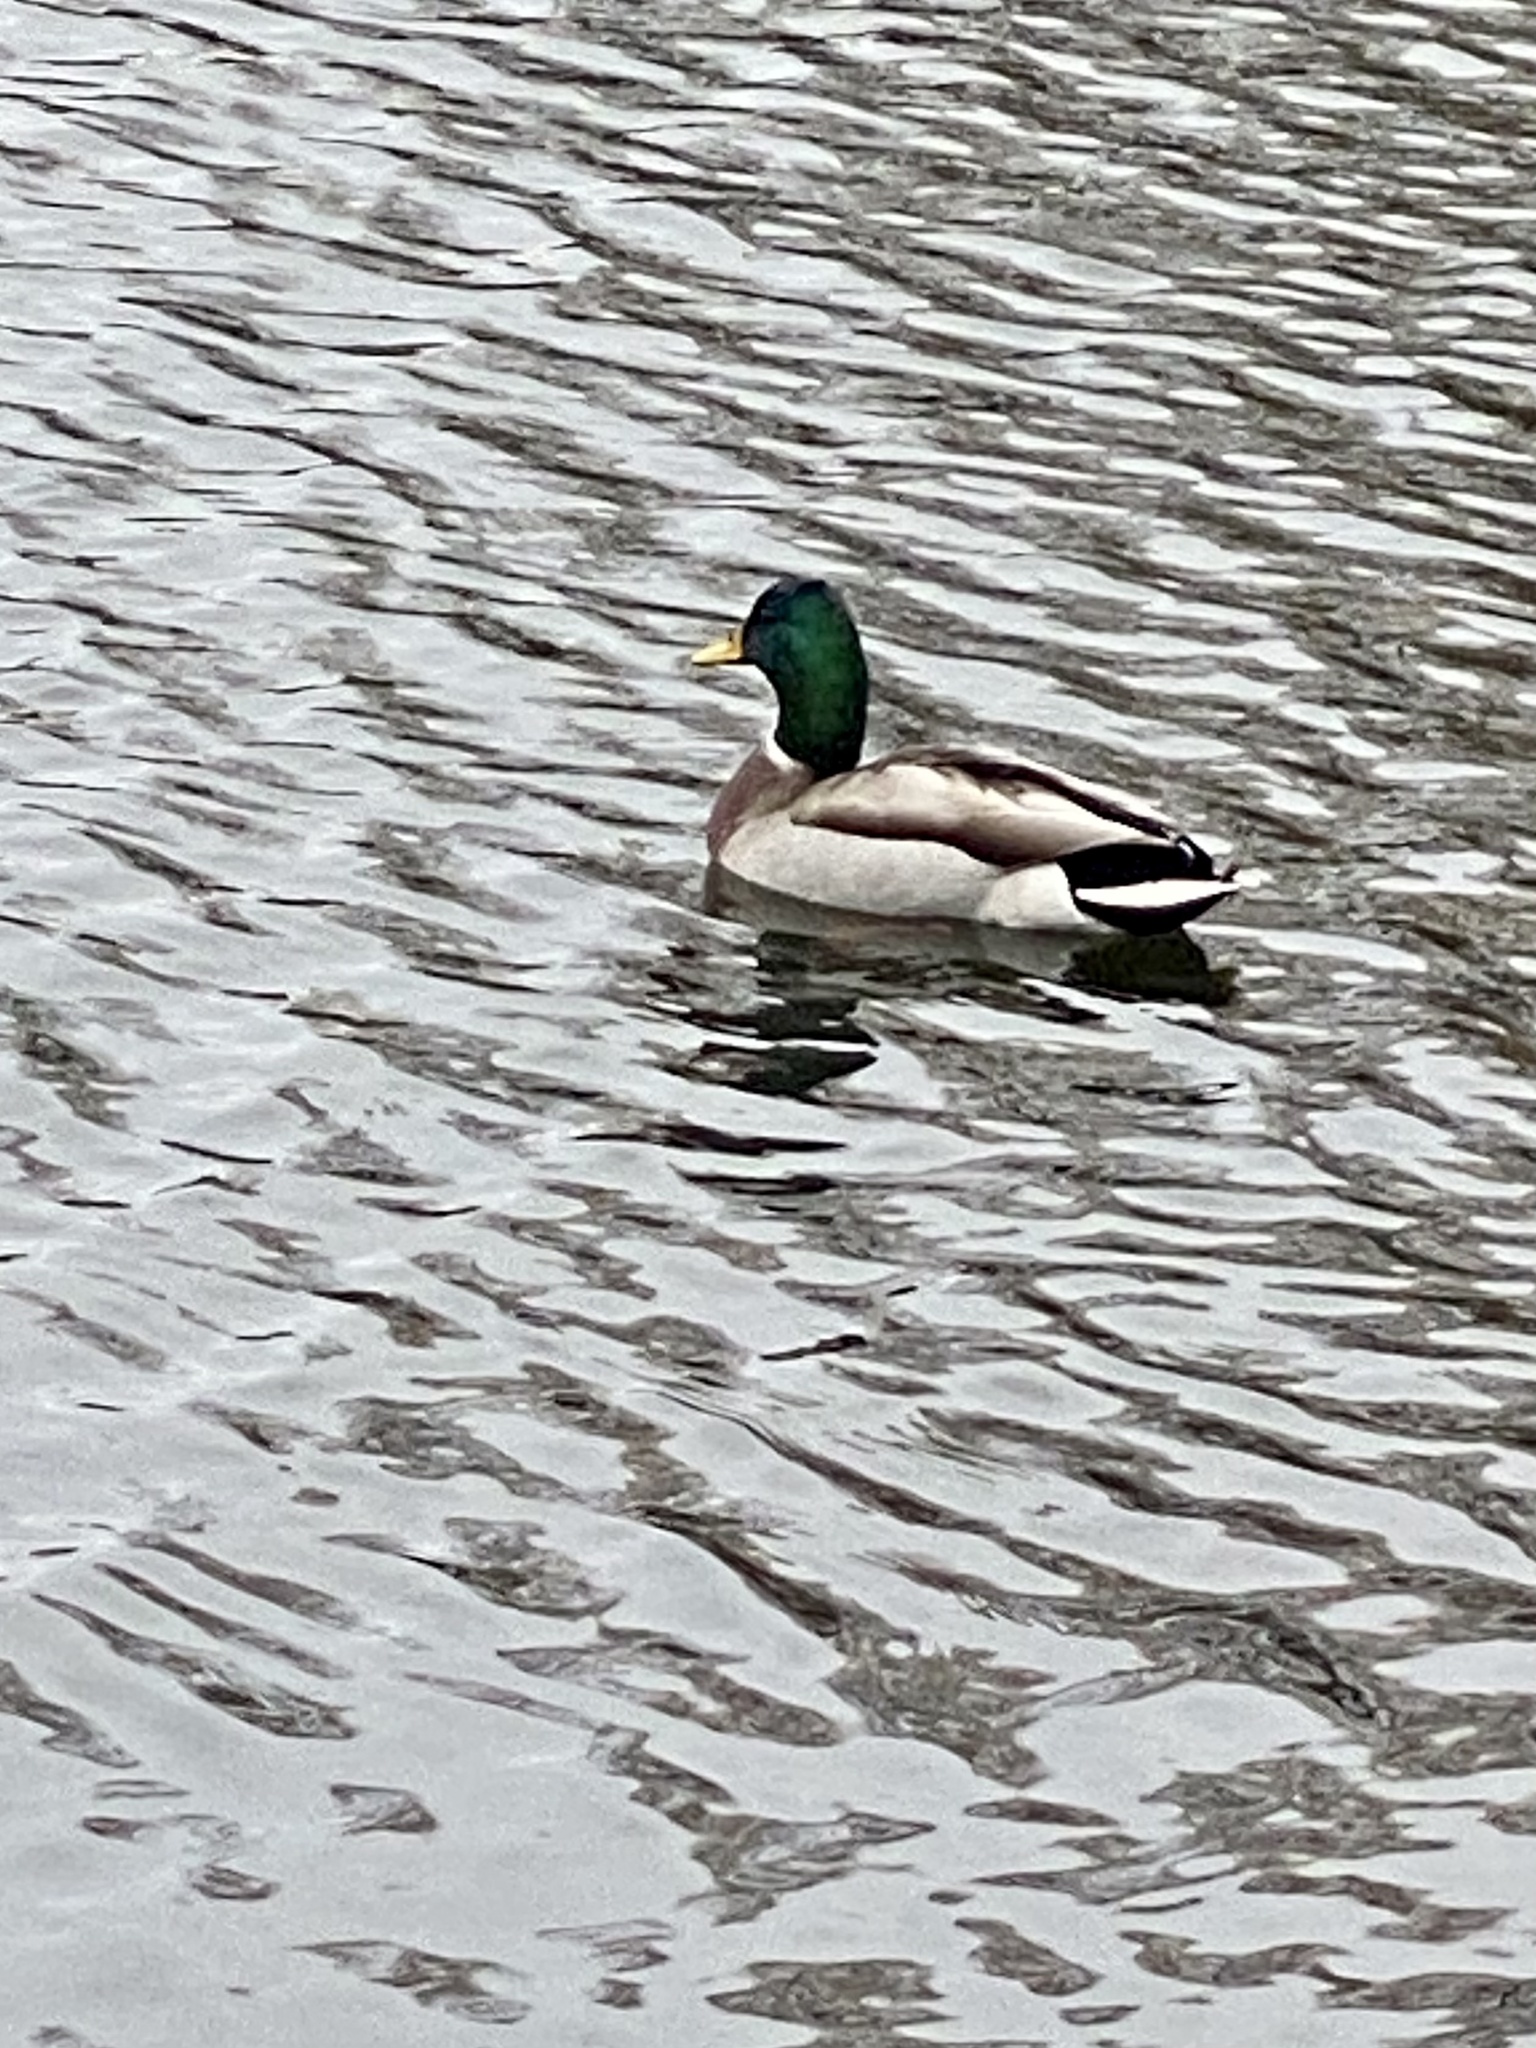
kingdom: Animalia
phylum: Chordata
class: Aves
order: Anseriformes
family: Anatidae
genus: Anas
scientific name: Anas platyrhynchos
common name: Mallard
